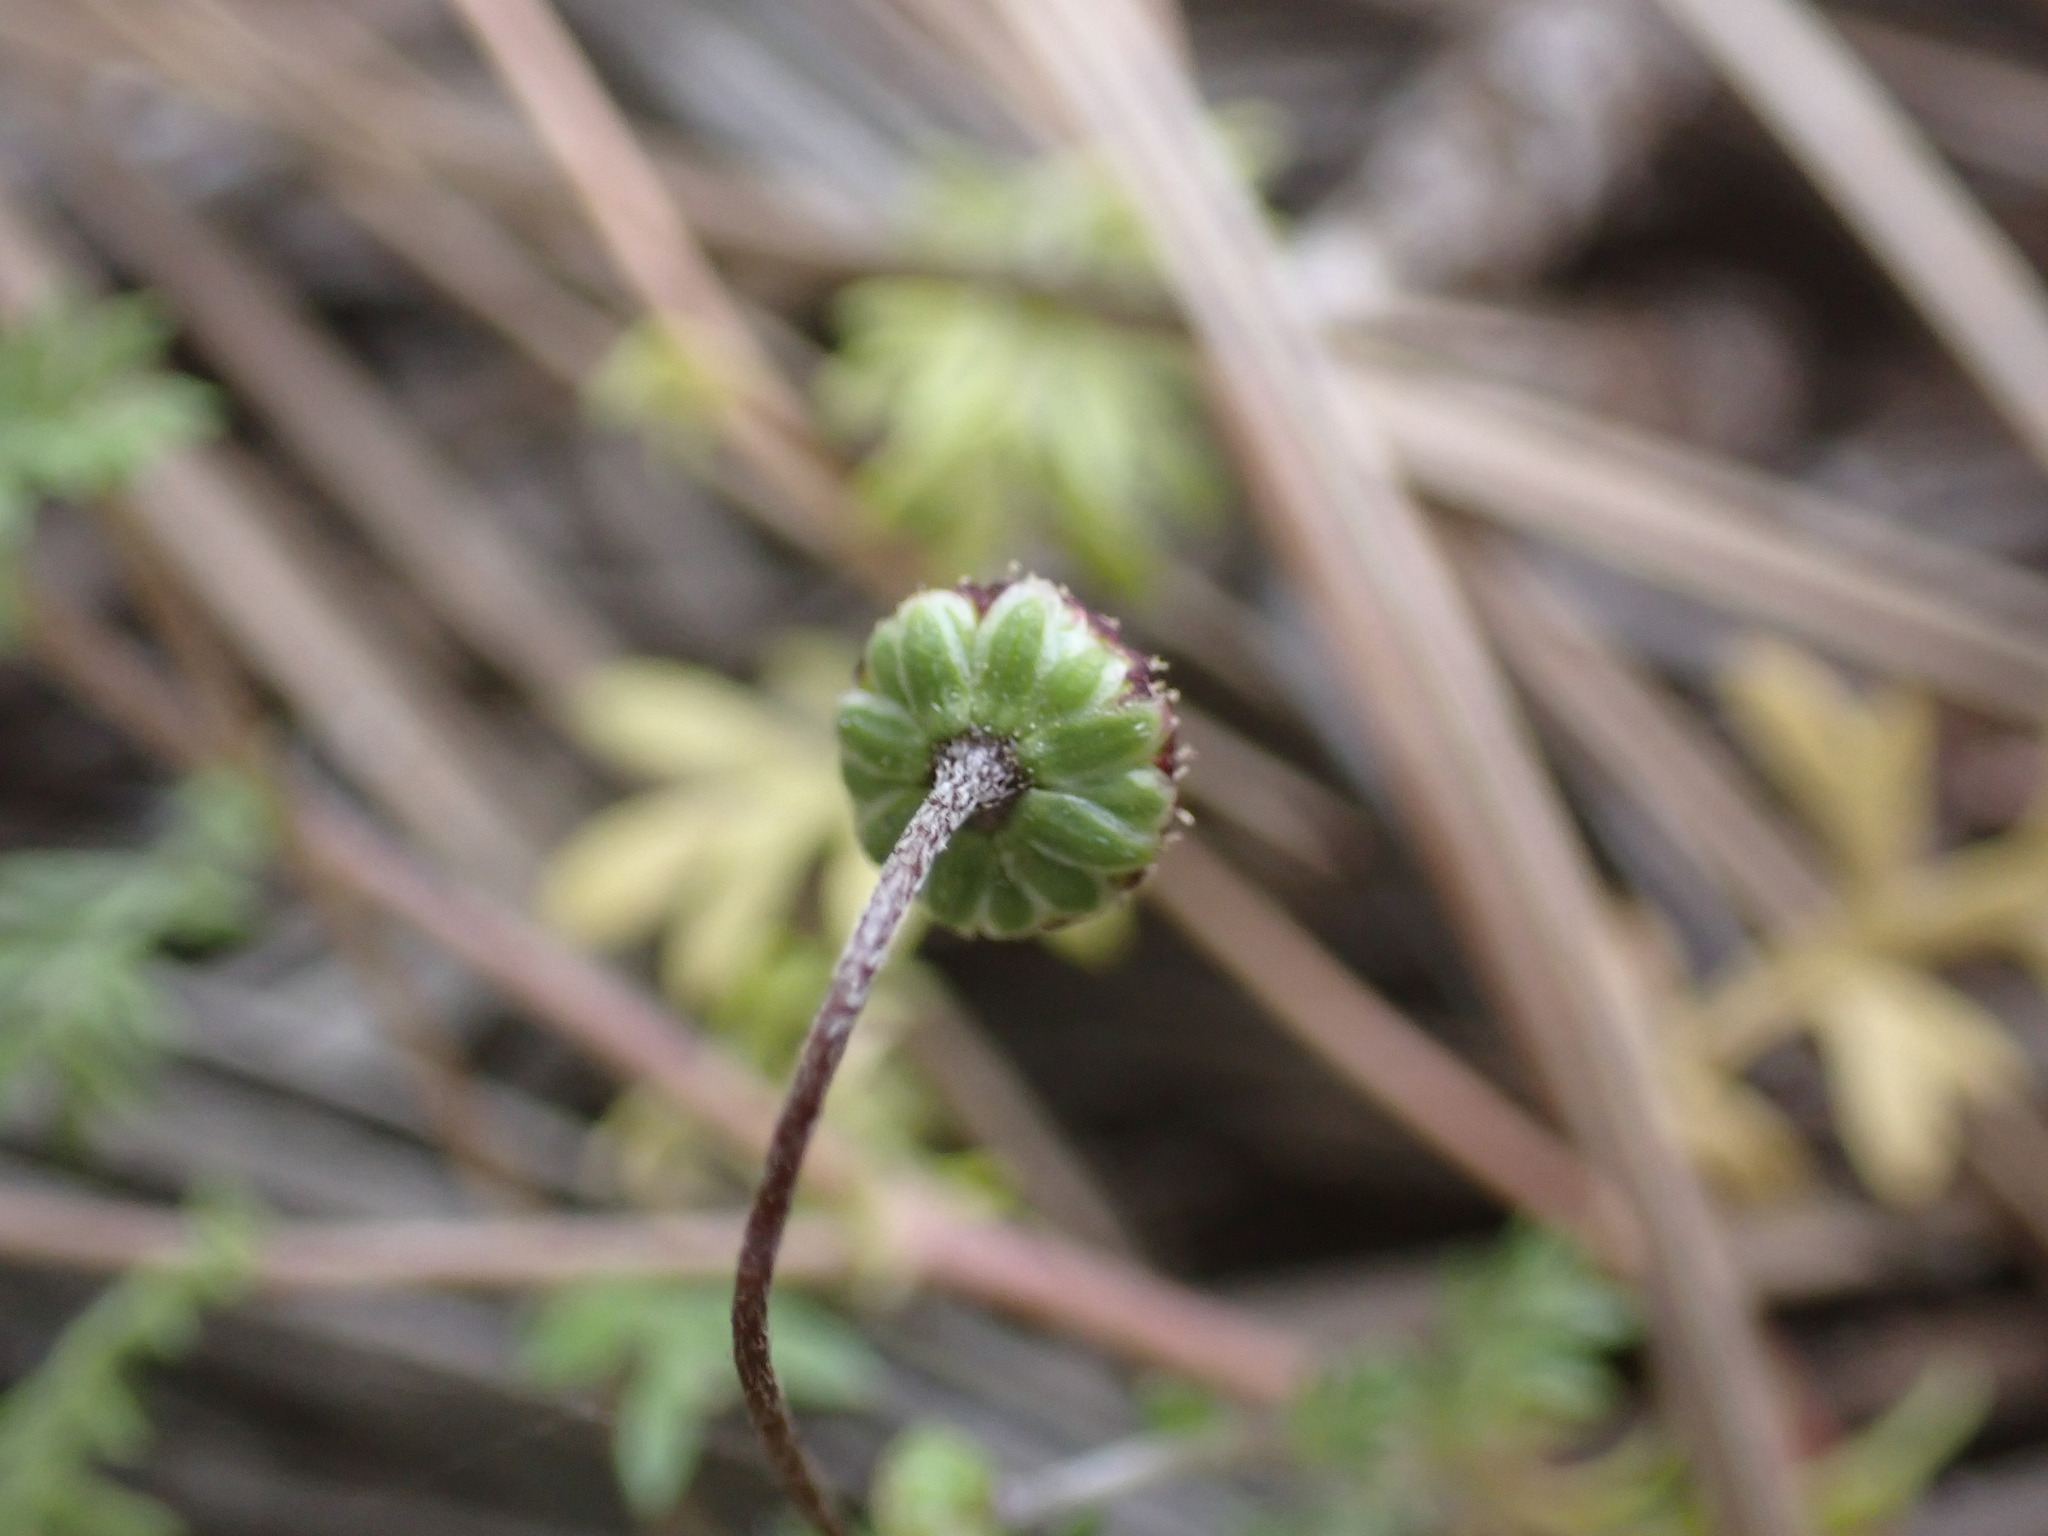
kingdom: Plantae
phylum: Tracheophyta
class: Magnoliopsida
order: Asterales
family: Asteraceae
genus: Cotula
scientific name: Cotula australis
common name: Australian waterbuttons
